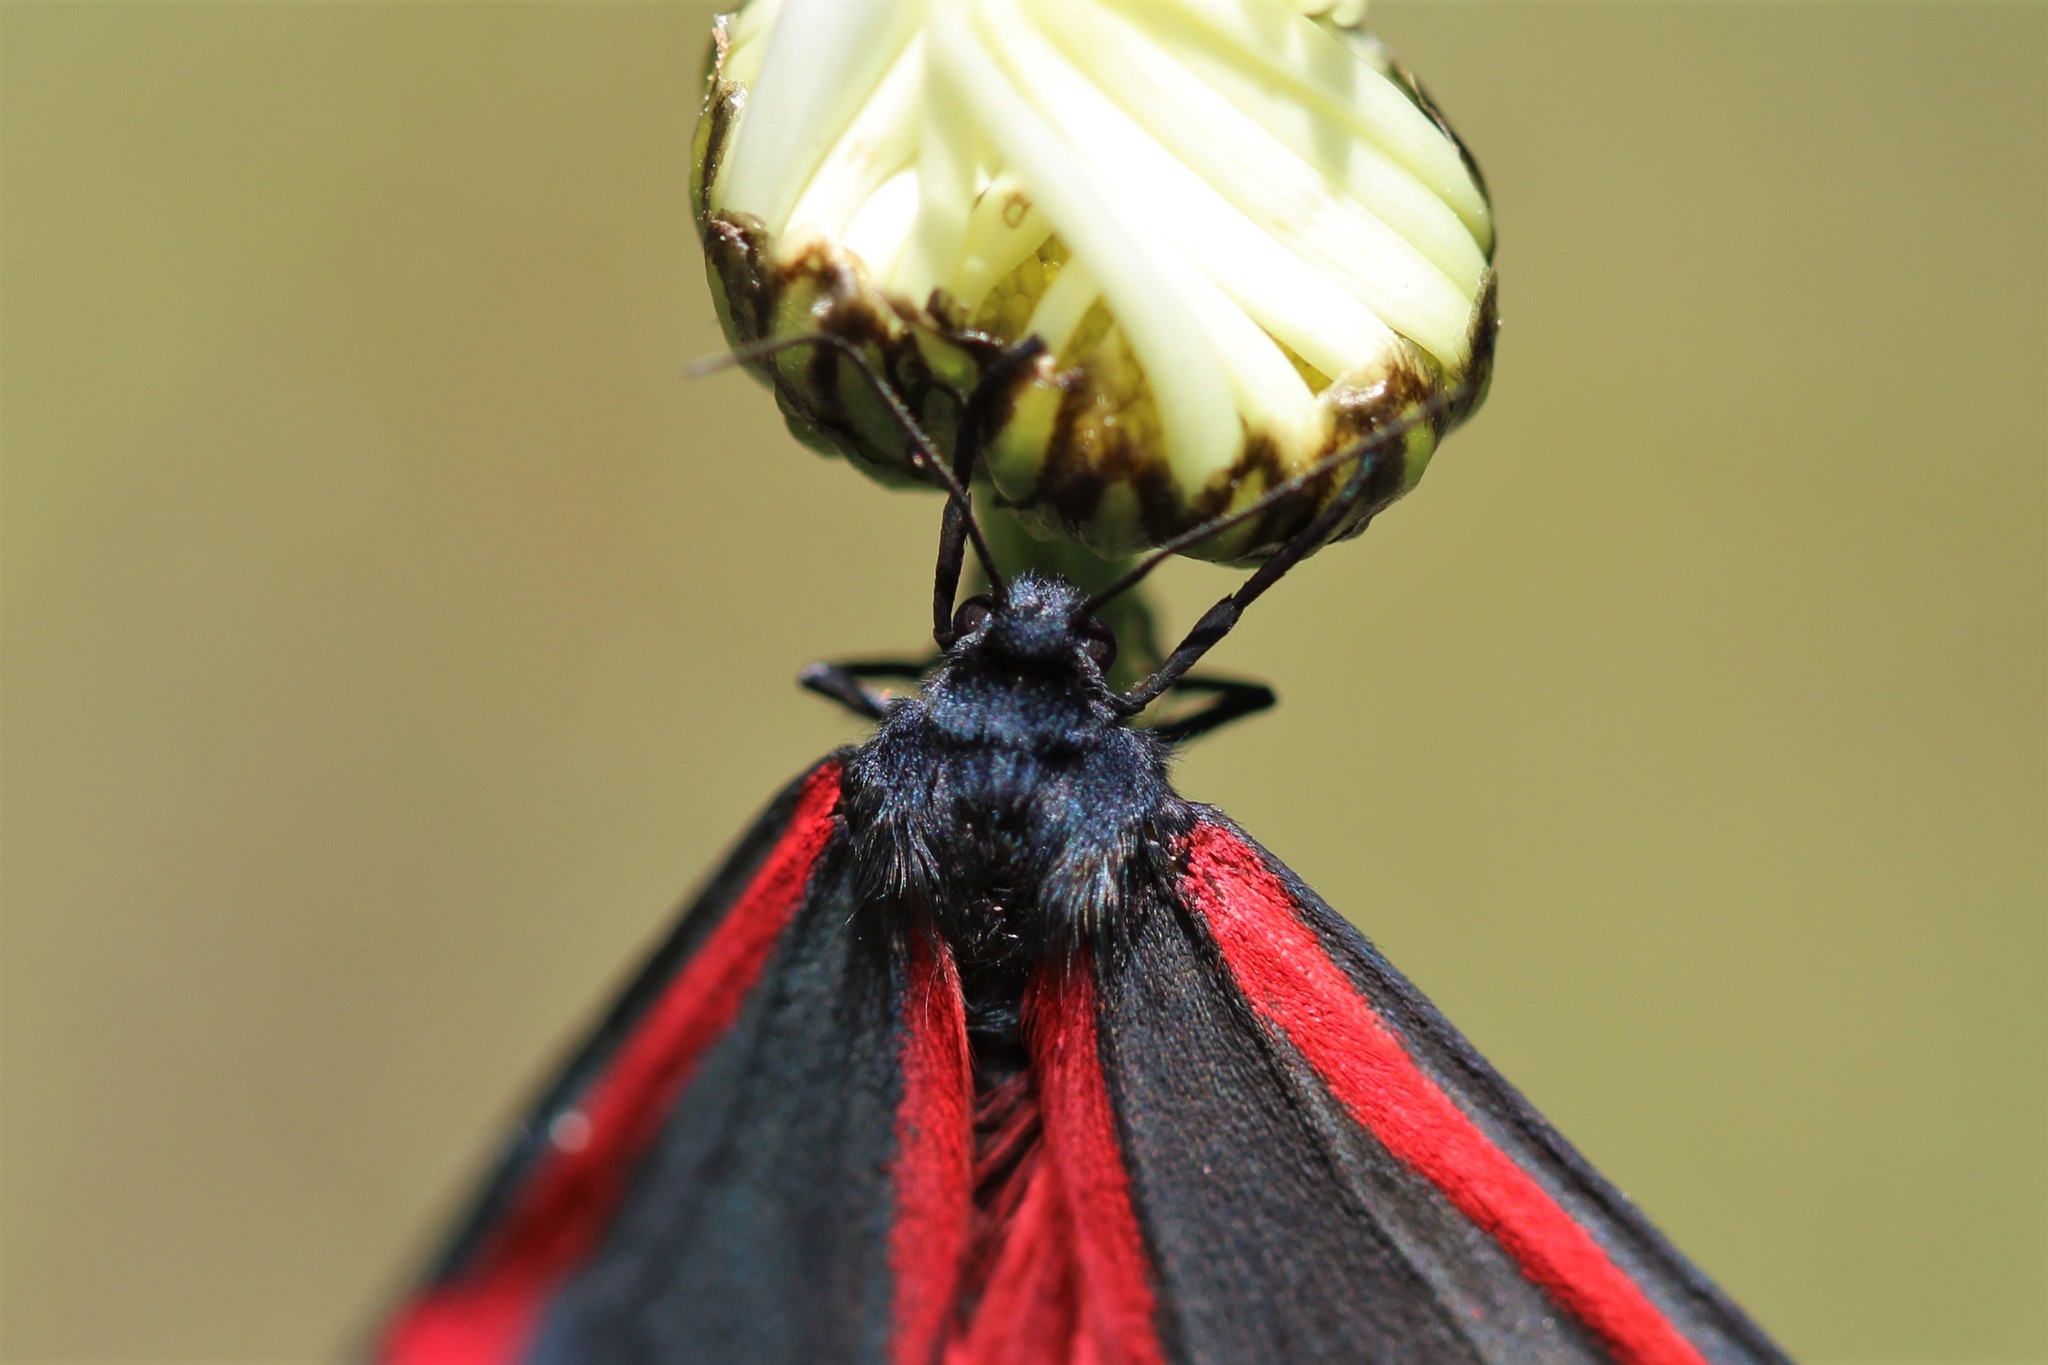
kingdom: Animalia
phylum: Arthropoda
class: Insecta
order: Lepidoptera
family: Erebidae
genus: Tyria
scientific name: Tyria jacobaeae
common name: Cinnabar
